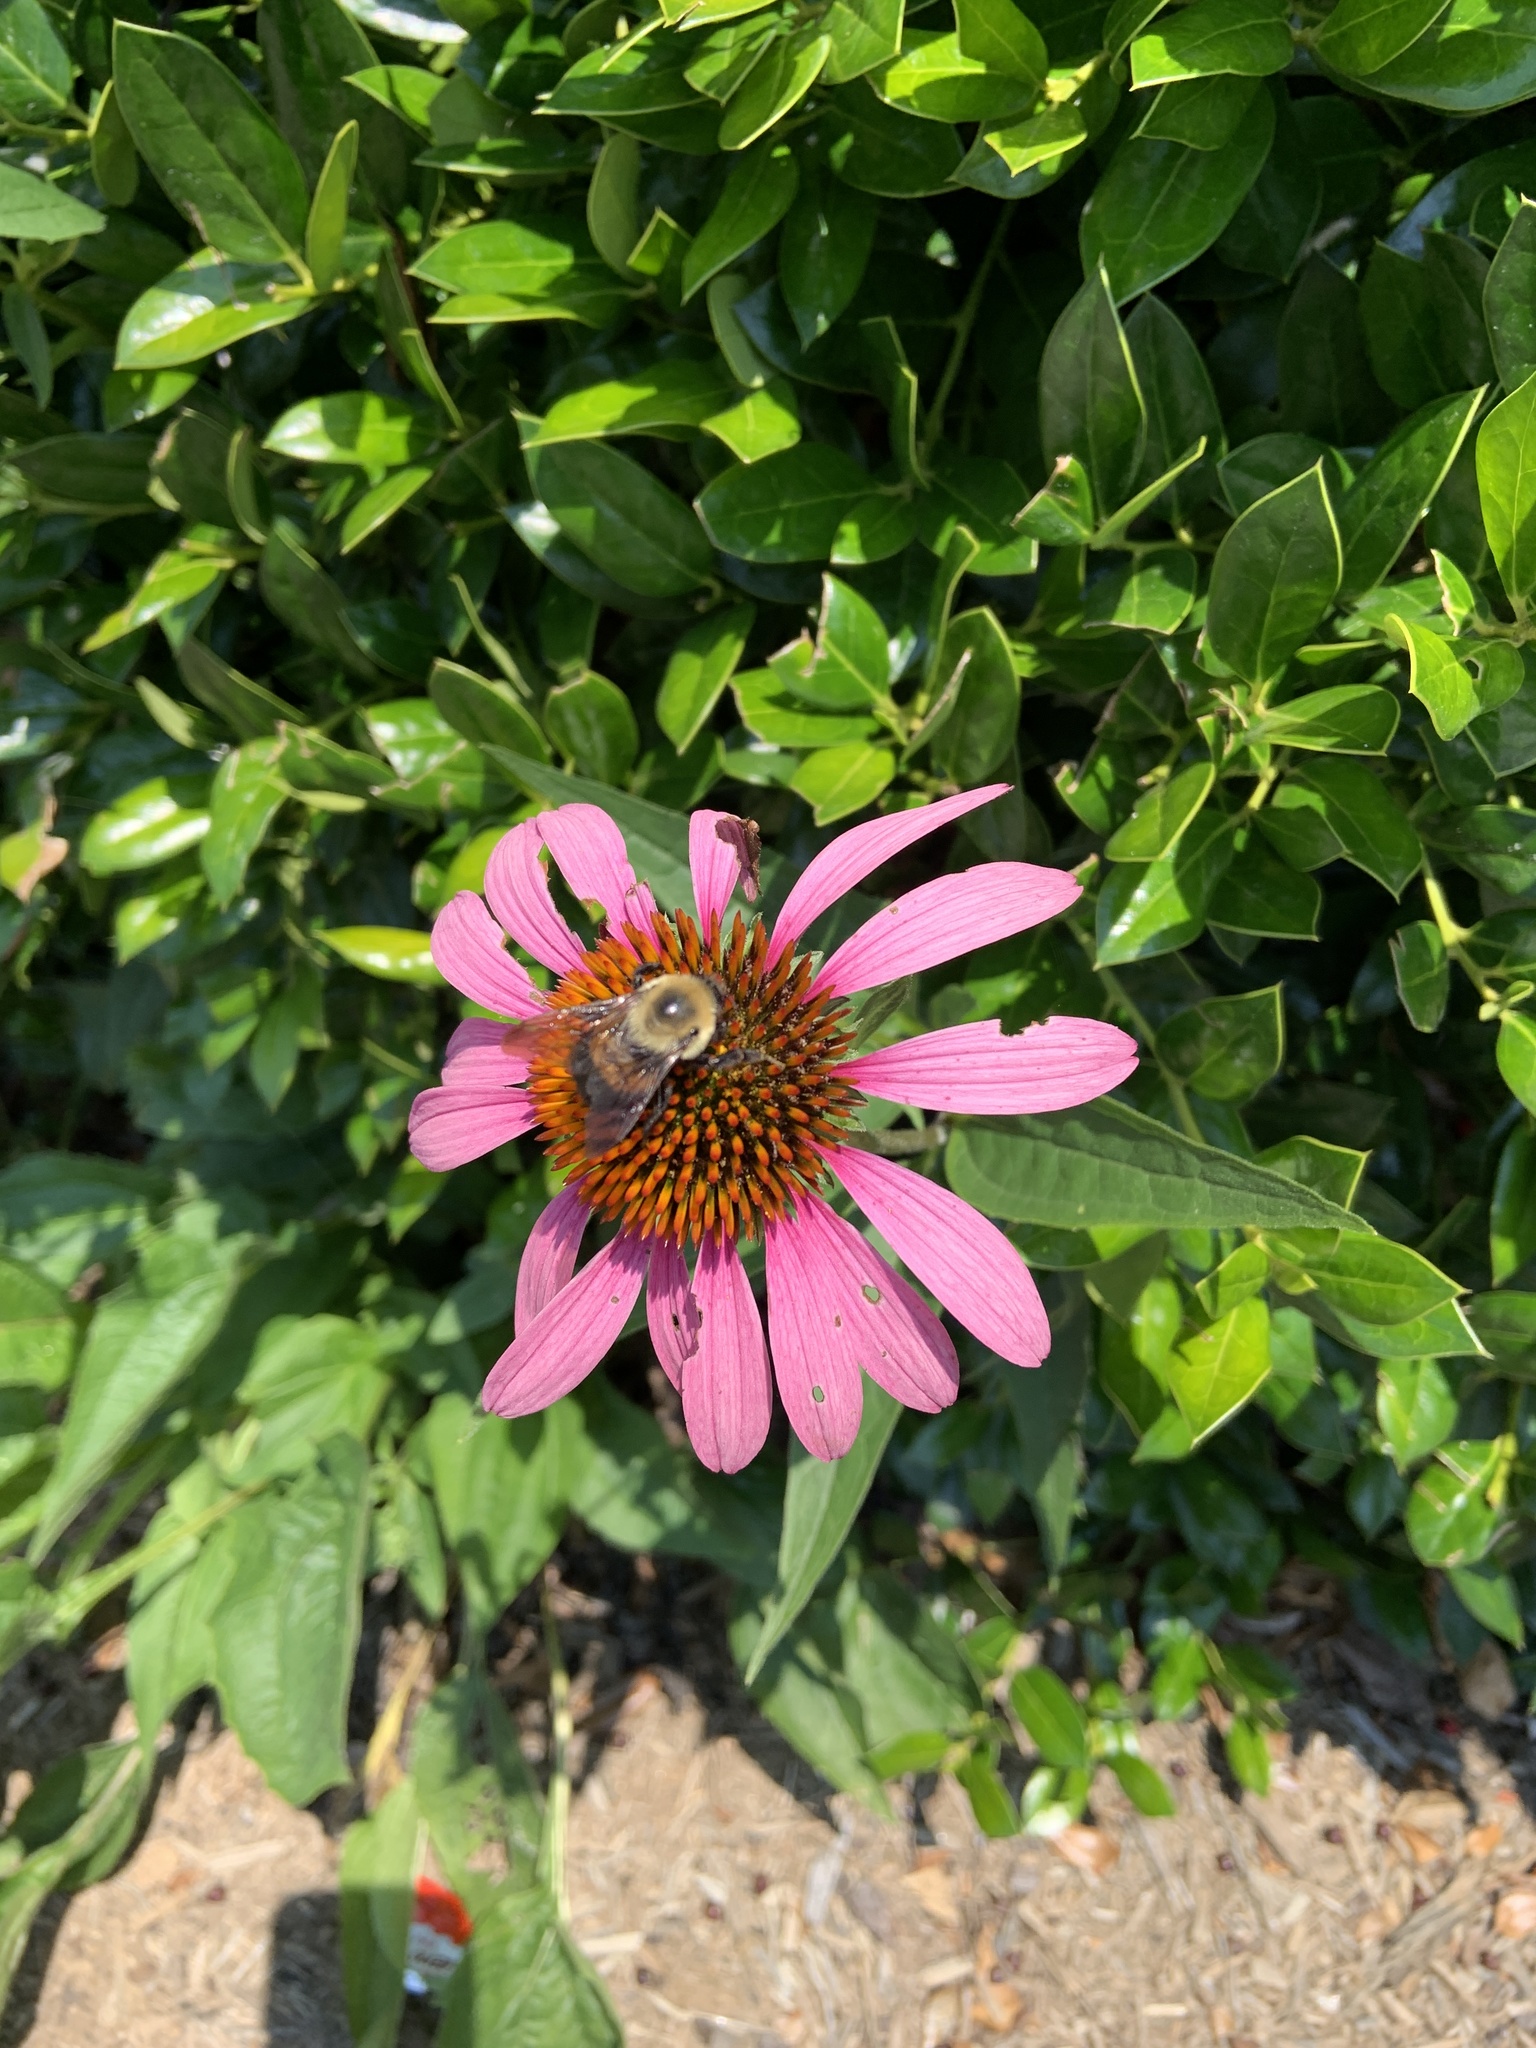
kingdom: Animalia
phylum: Arthropoda
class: Insecta
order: Hymenoptera
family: Apidae
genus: Bombus
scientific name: Bombus griseocollis
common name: Brown-belted bumble bee
